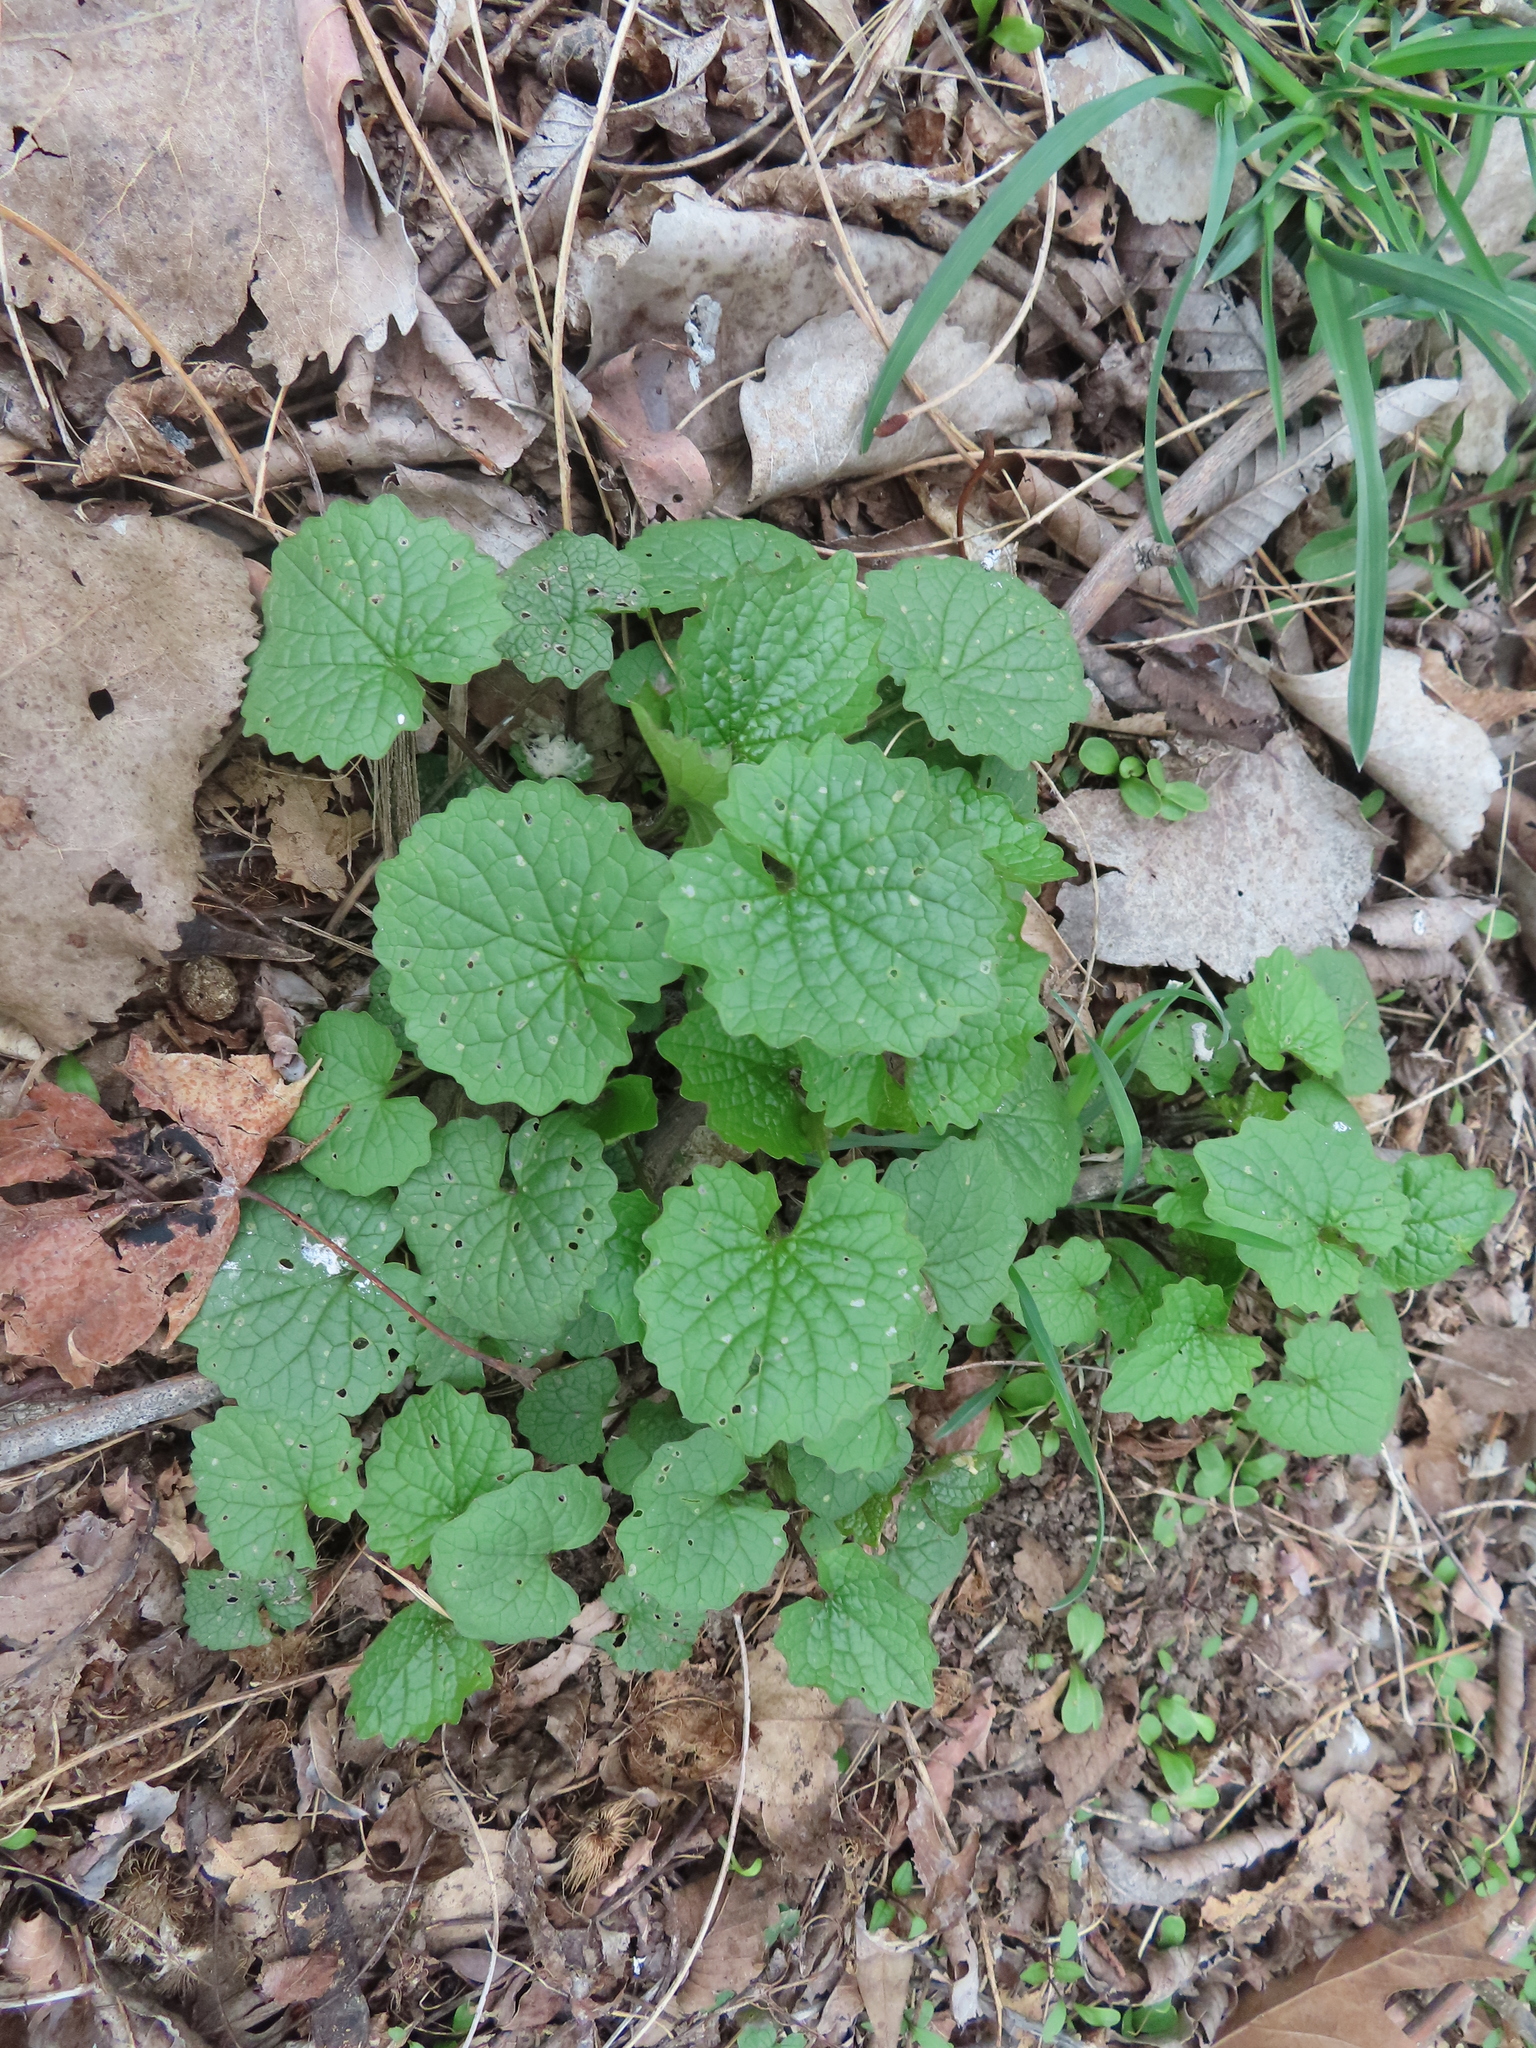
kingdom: Plantae
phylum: Tracheophyta
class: Magnoliopsida
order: Brassicales
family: Brassicaceae
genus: Alliaria
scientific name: Alliaria petiolata
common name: Garlic mustard
